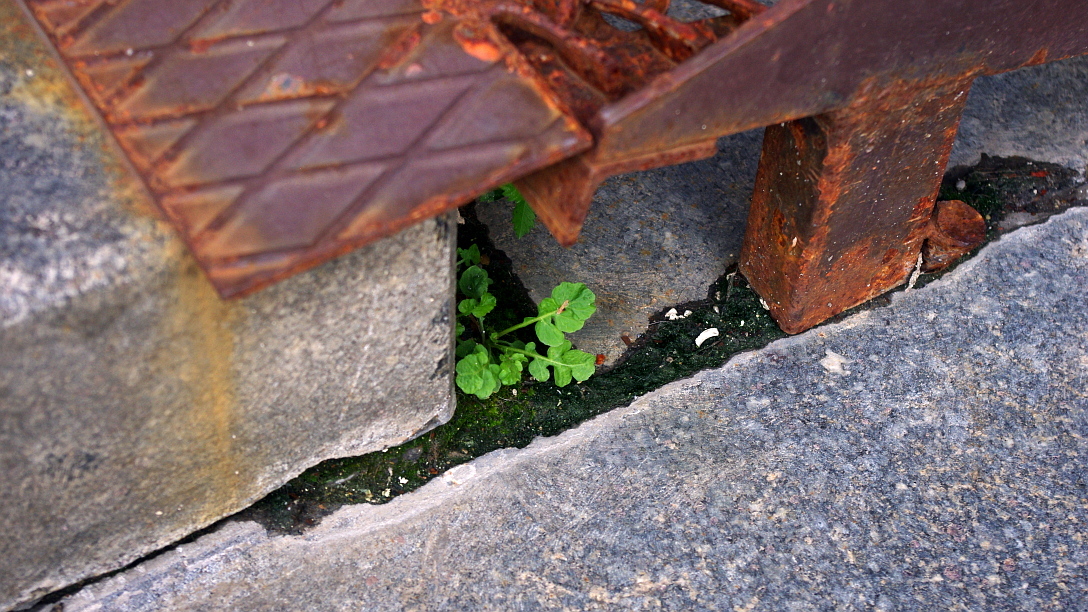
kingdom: Plantae
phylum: Tracheophyta
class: Magnoliopsida
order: Brassicales
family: Brassicaceae
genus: Rorippa
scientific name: Rorippa palustris
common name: Marsh yellow-cress
